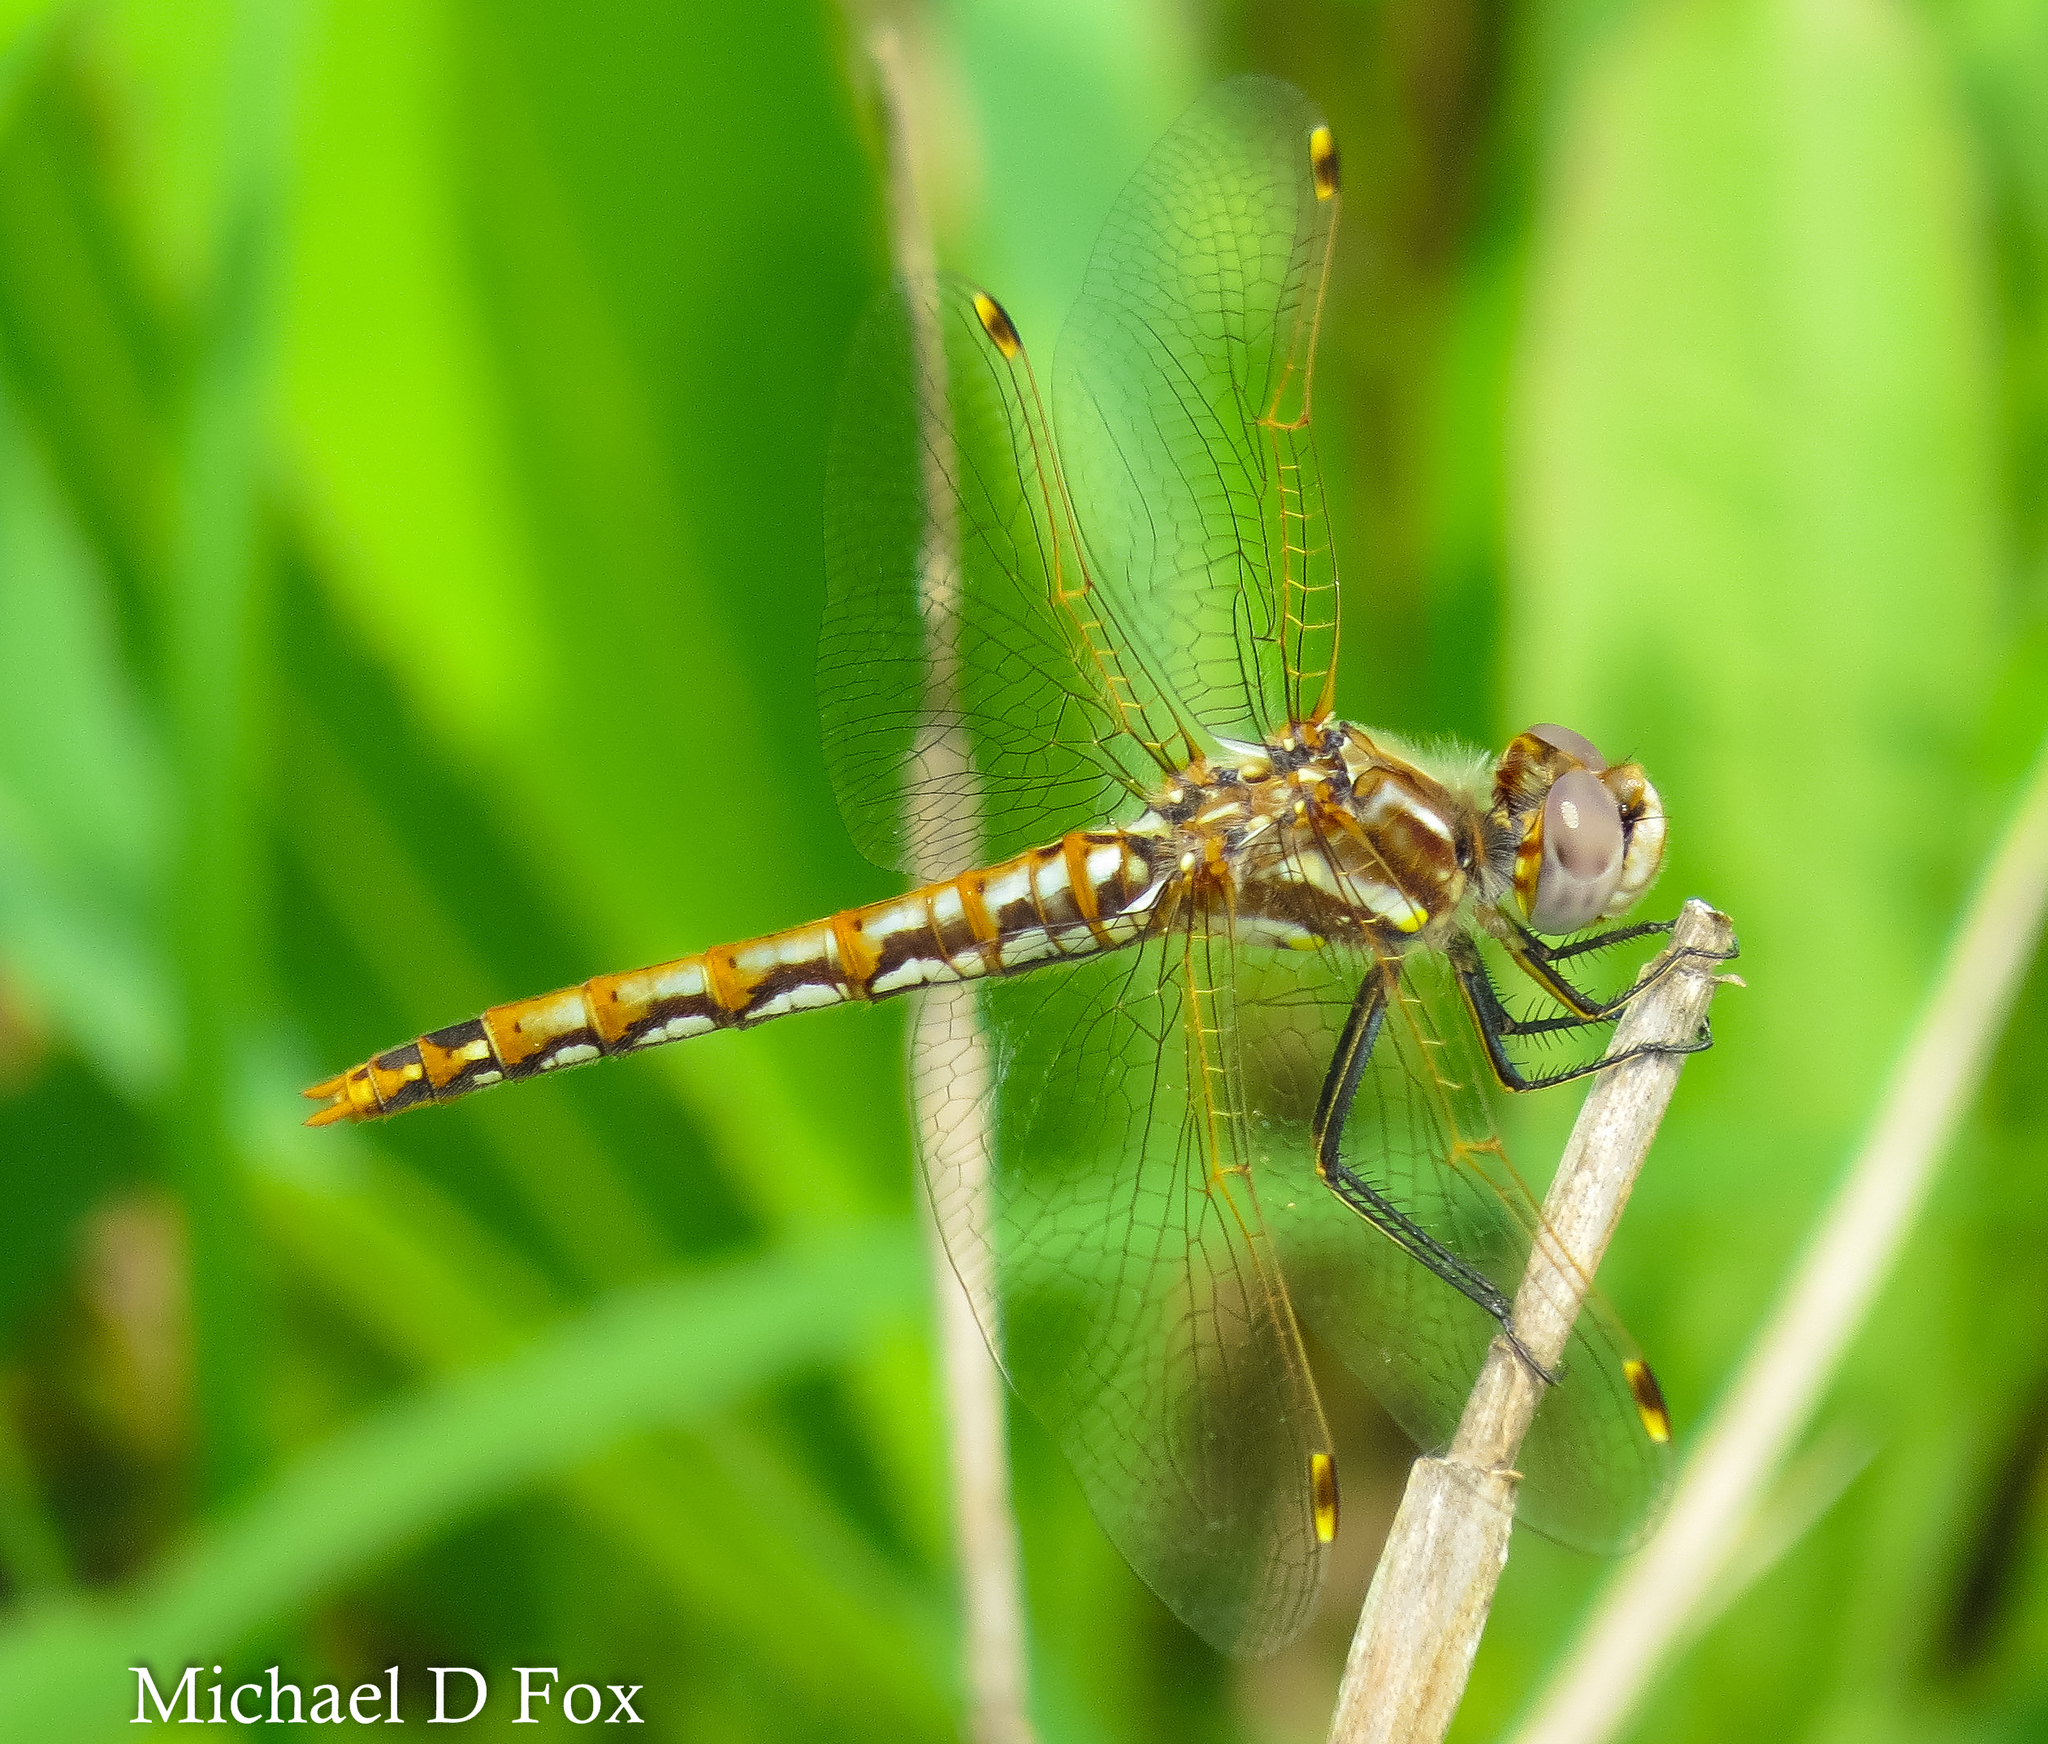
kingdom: Animalia
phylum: Arthropoda
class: Insecta
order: Odonata
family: Libellulidae
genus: Sympetrum
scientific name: Sympetrum corruptum
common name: Variegated meadowhawk
